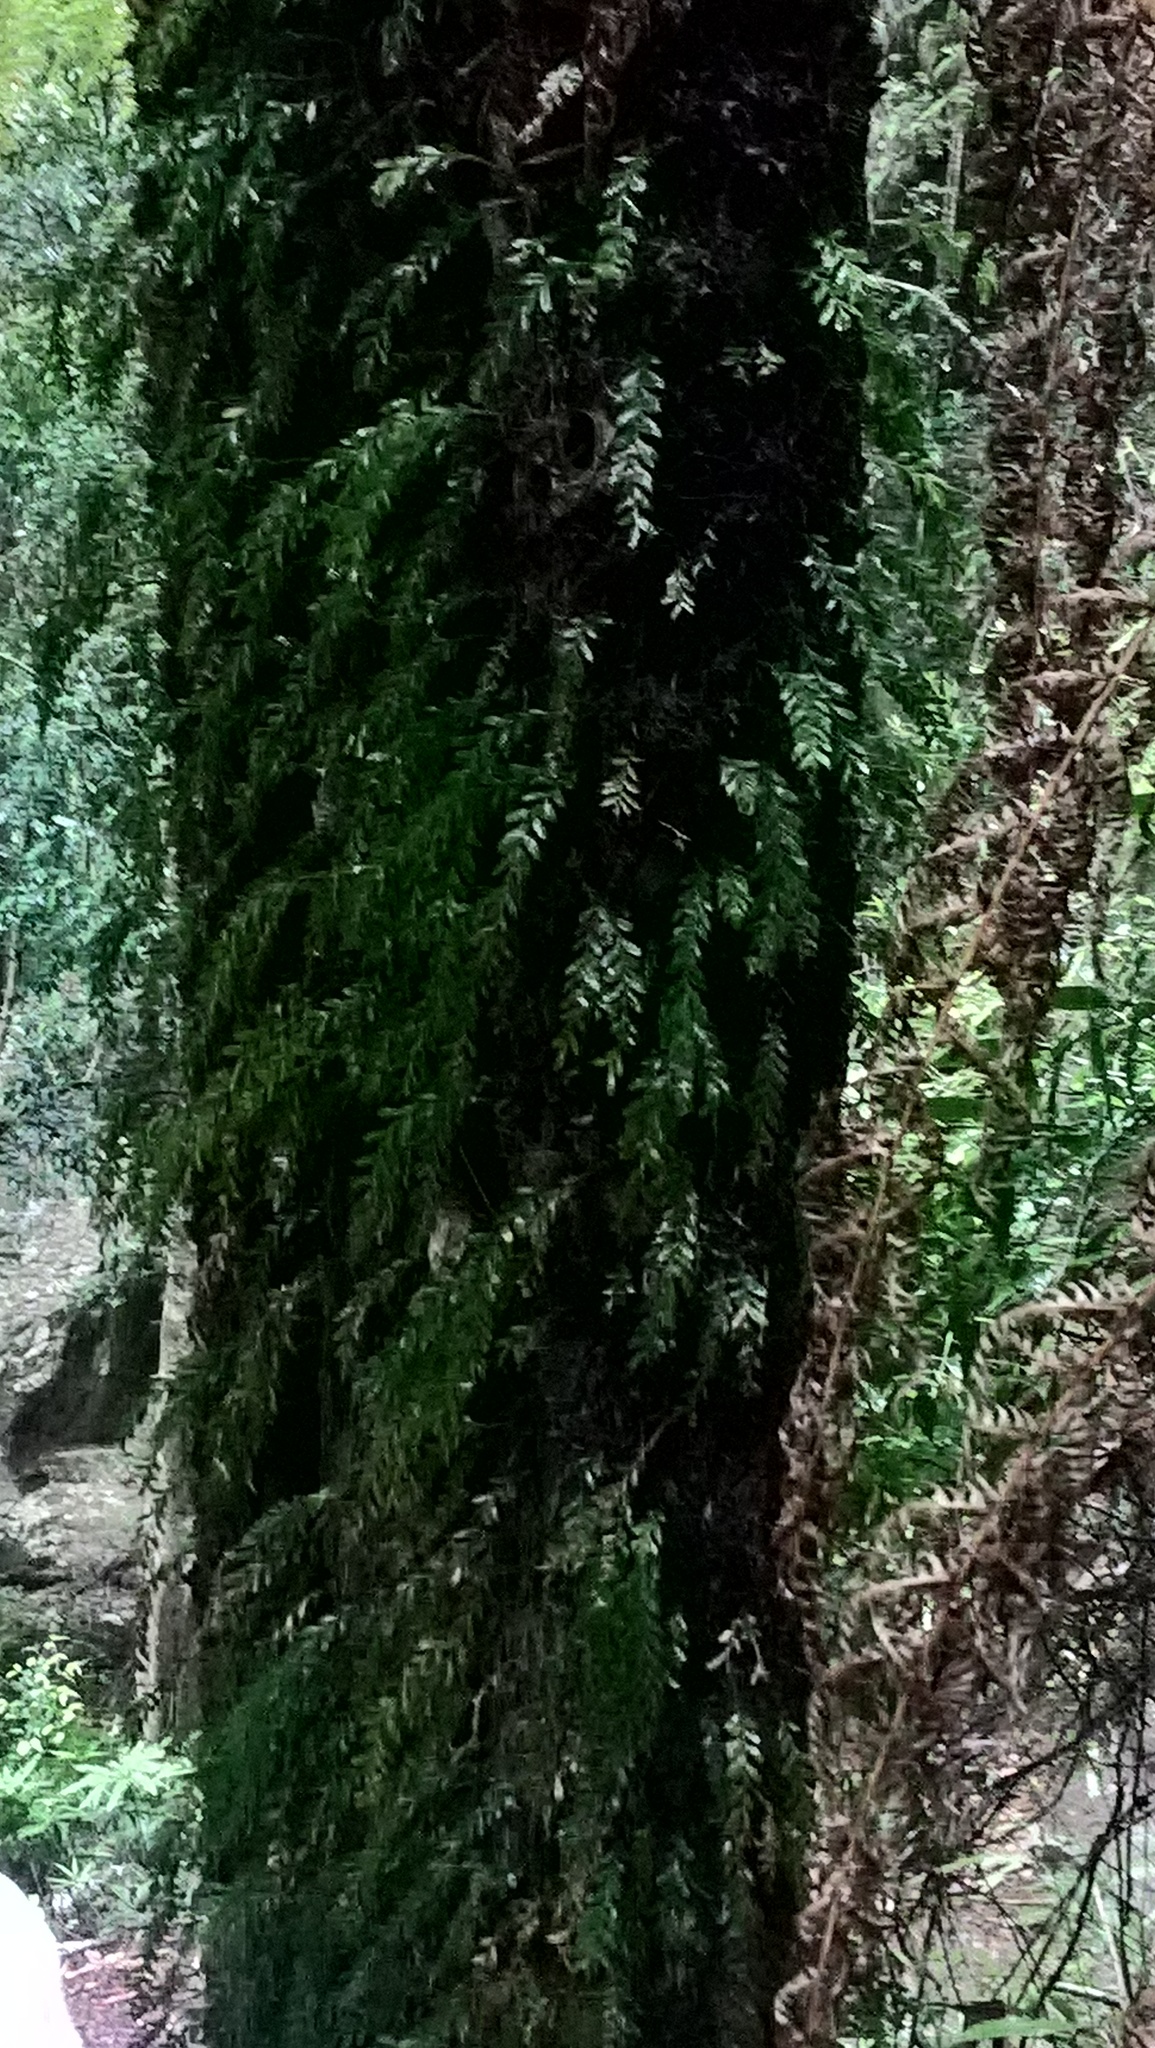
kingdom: Plantae
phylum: Tracheophyta
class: Polypodiopsida
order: Psilotales
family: Psilotaceae
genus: Tmesipteris
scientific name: Tmesipteris ovata
